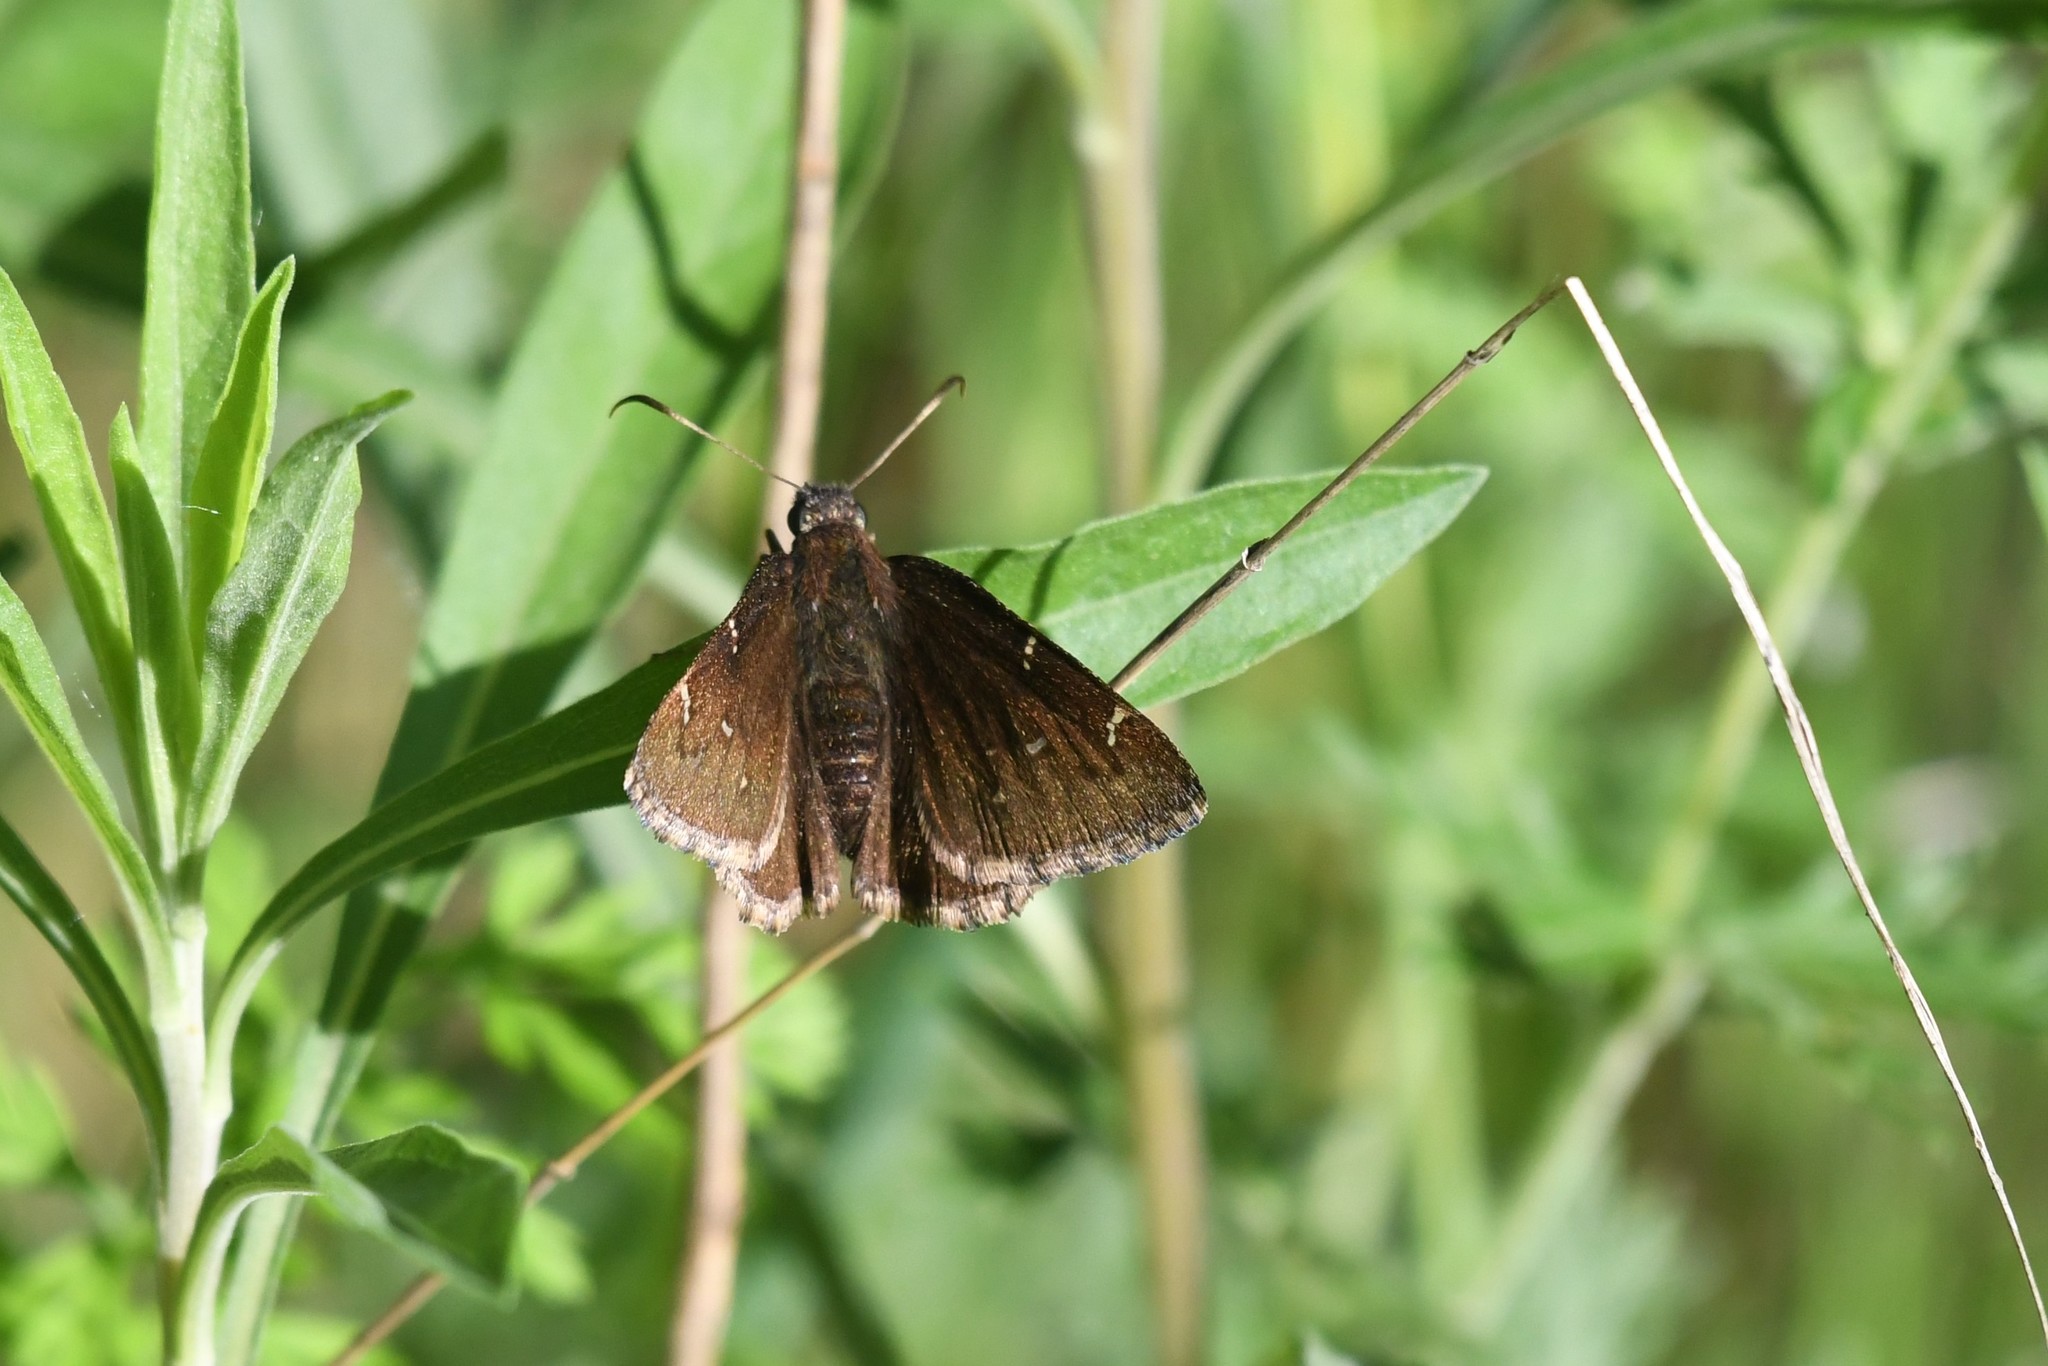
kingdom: Animalia
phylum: Arthropoda
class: Insecta
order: Lepidoptera
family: Hesperiidae
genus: Thorybes
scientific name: Thorybes pylades
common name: Northern cloudywing
